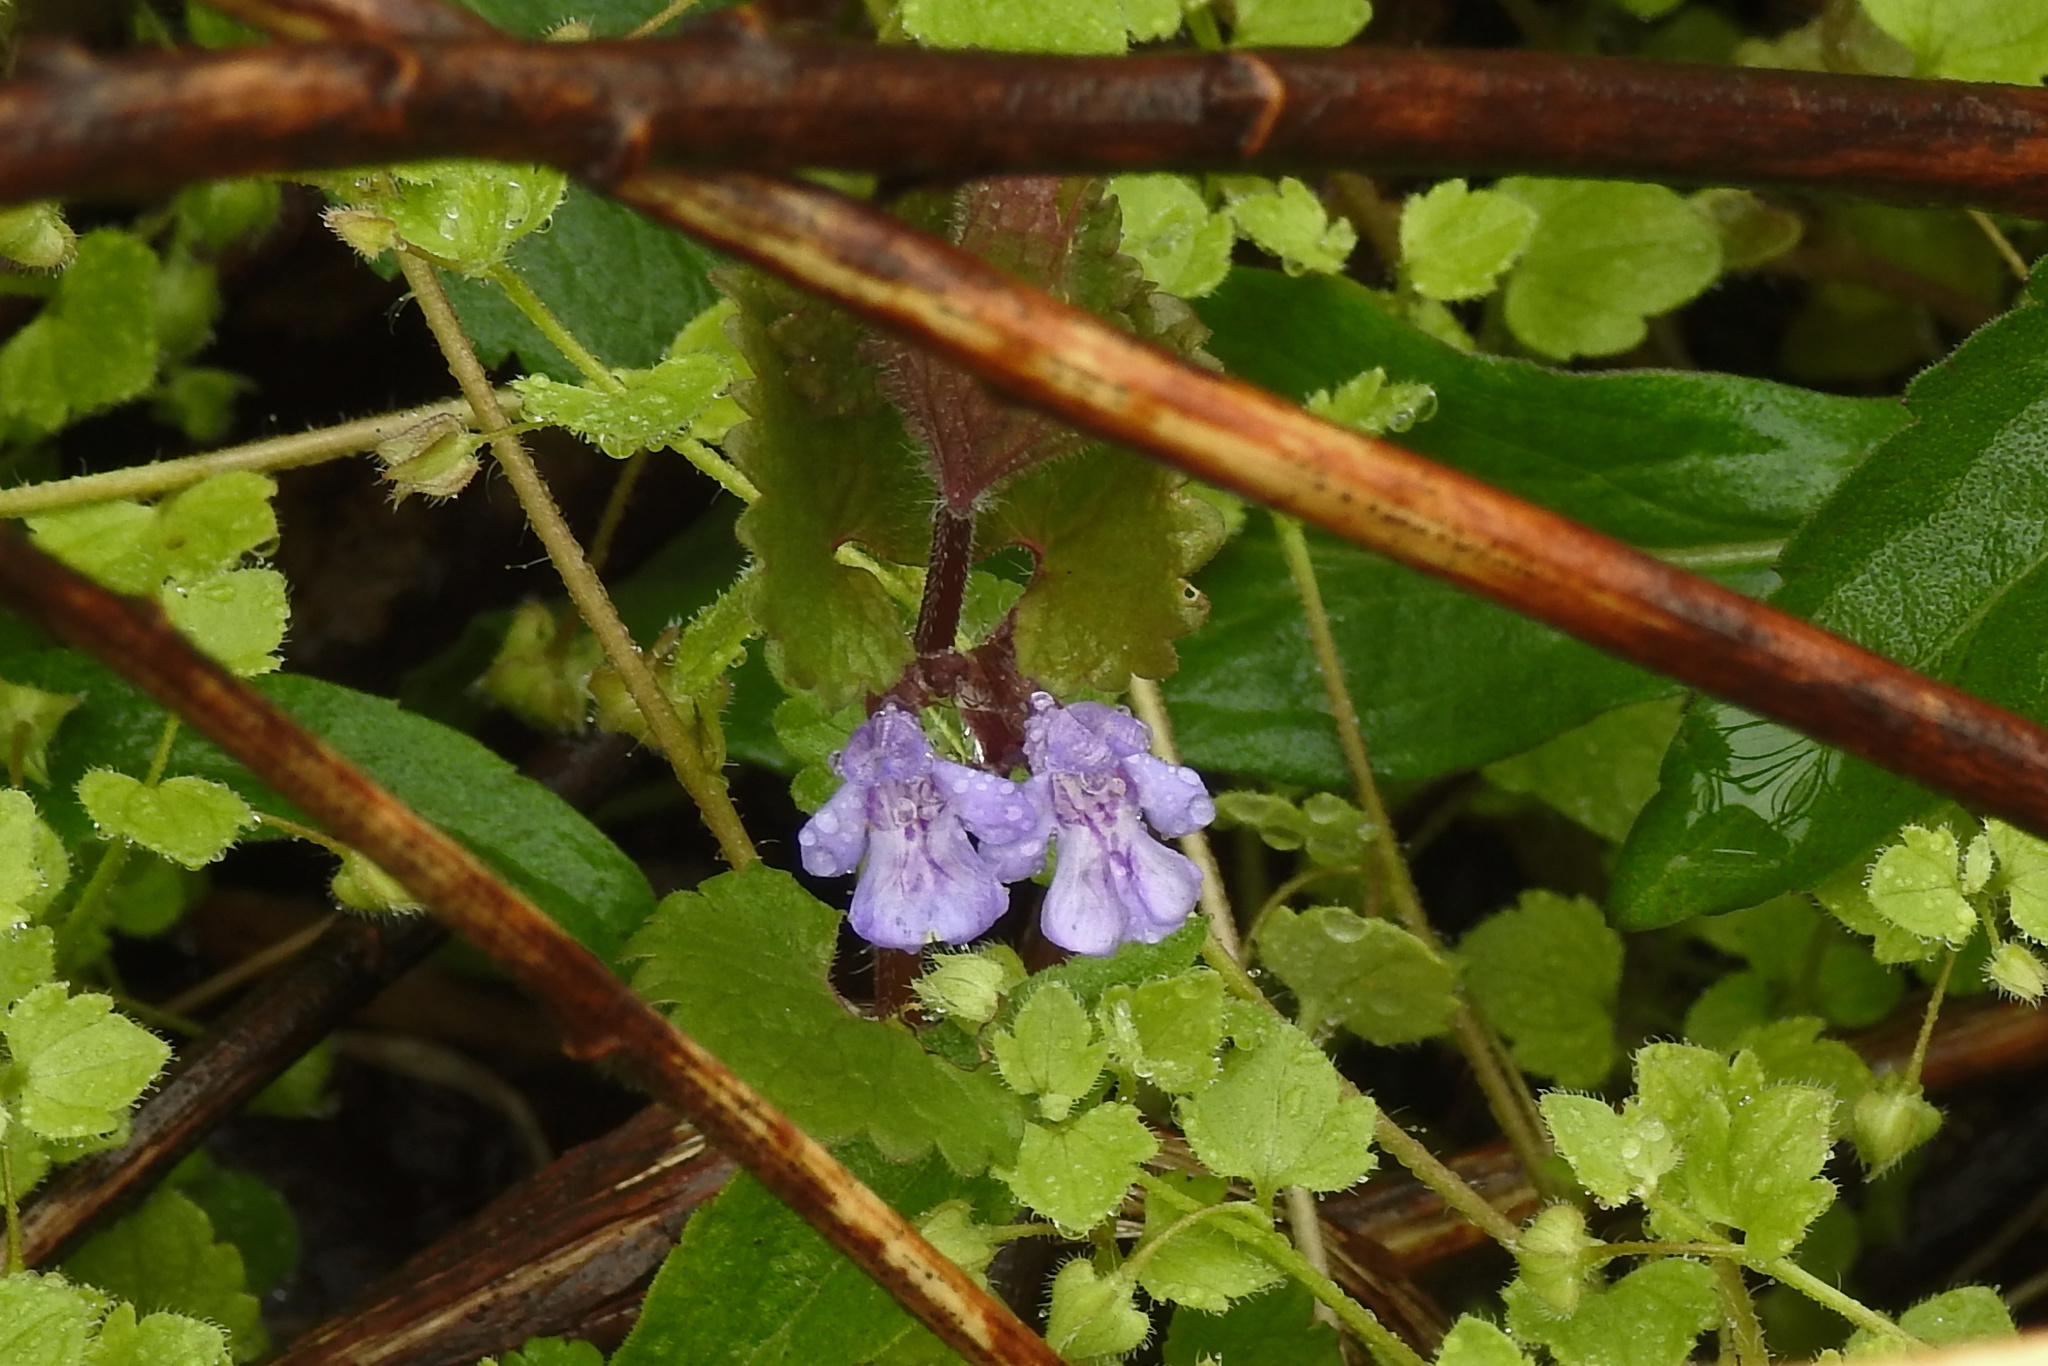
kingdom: Plantae
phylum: Tracheophyta
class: Magnoliopsida
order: Lamiales
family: Lamiaceae
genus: Glechoma
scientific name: Glechoma hederacea
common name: Ground ivy
